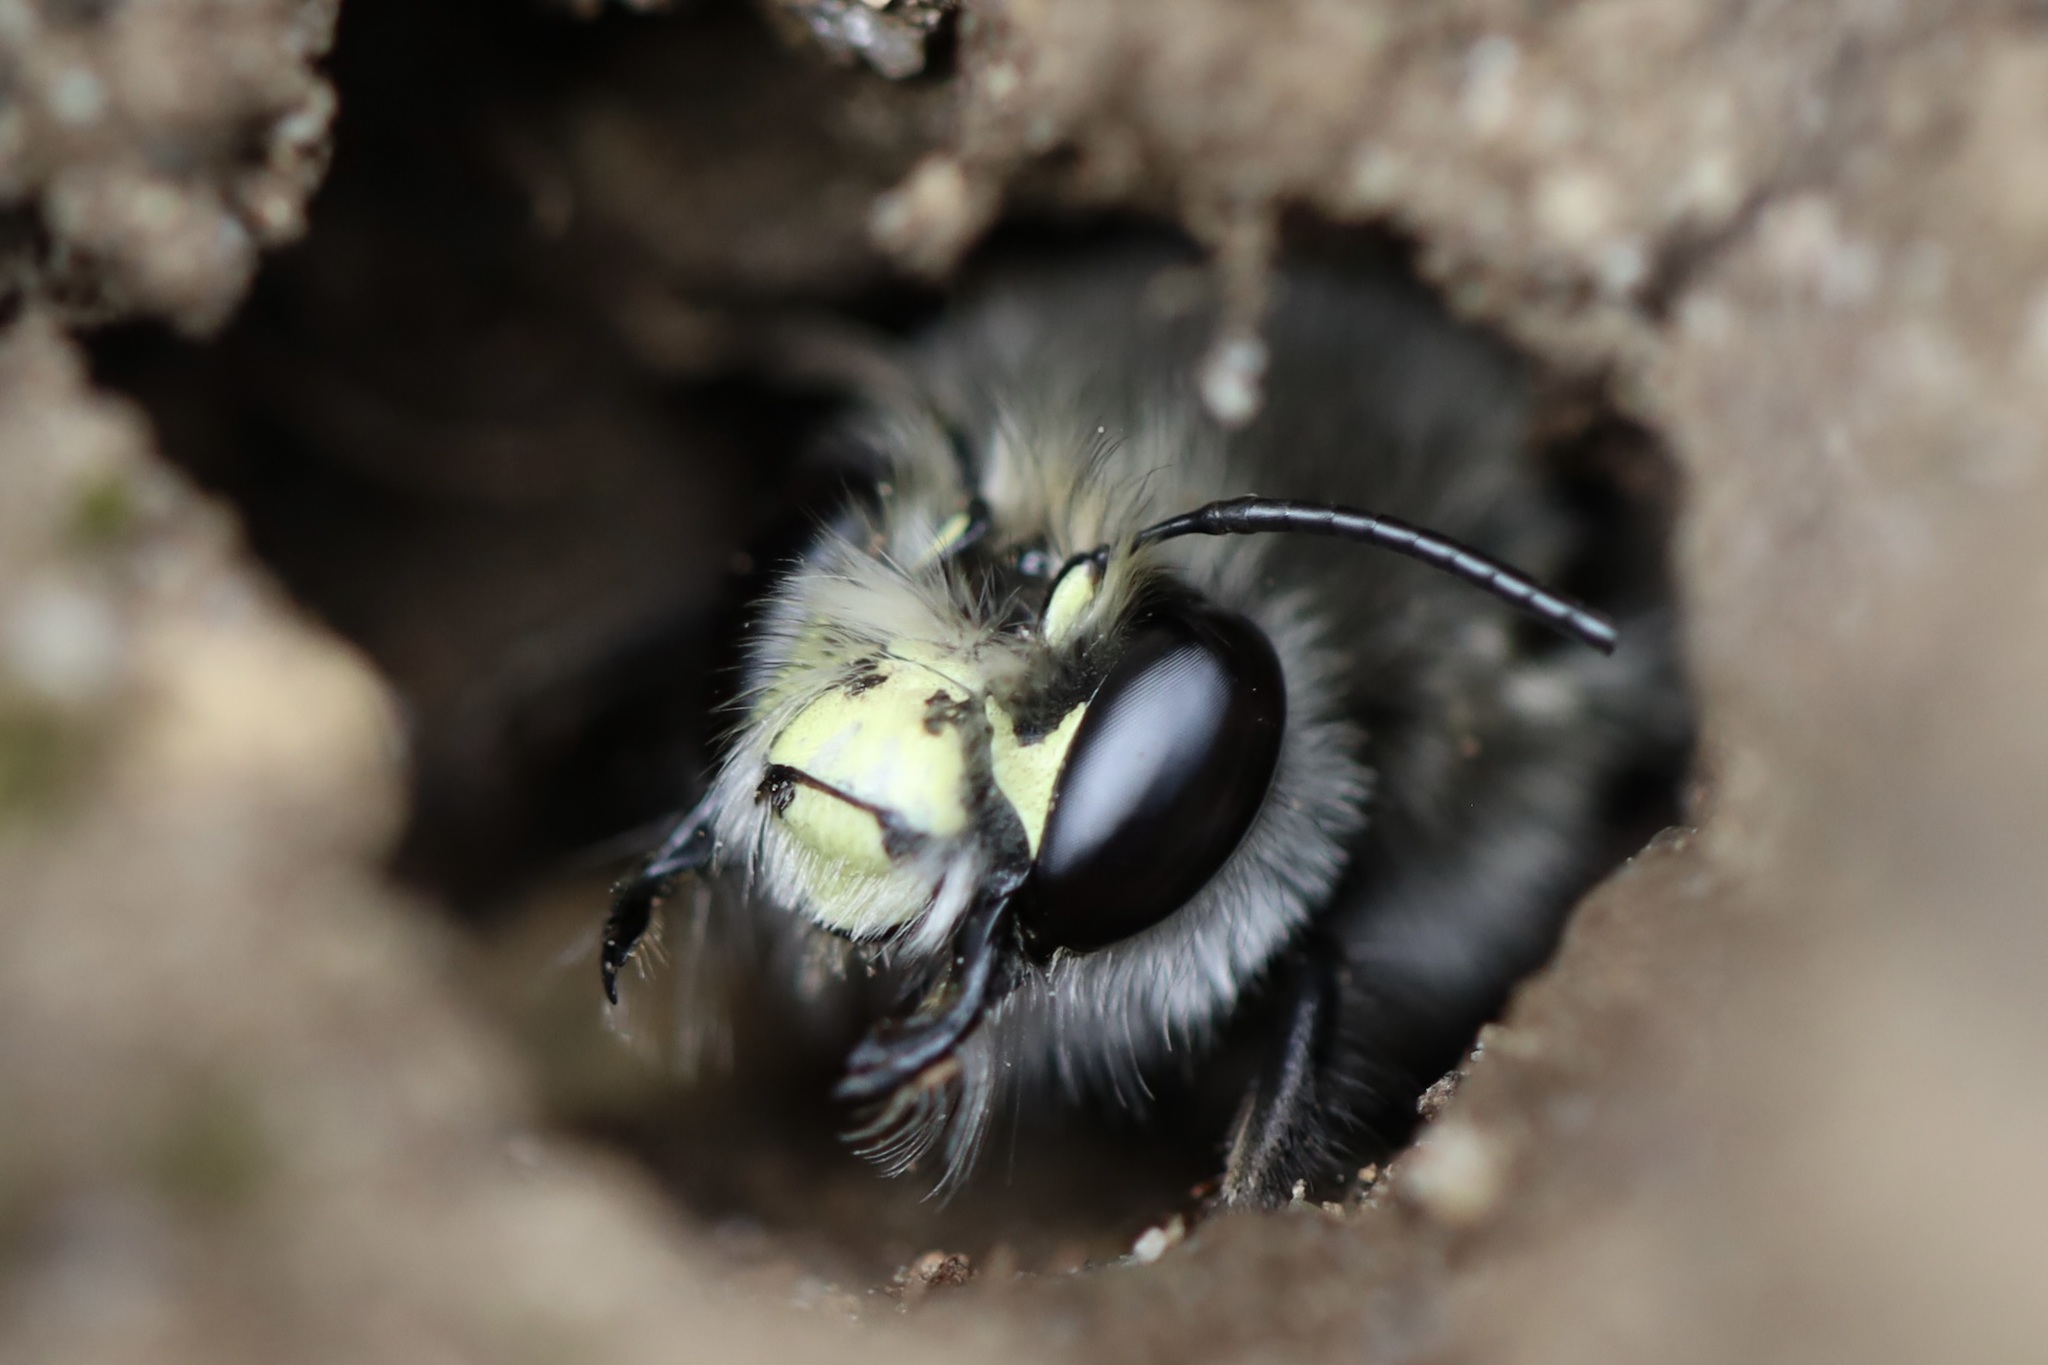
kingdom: Animalia
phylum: Arthropoda
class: Insecta
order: Hymenoptera
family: Apidae
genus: Anthophora
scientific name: Anthophora pacifica
